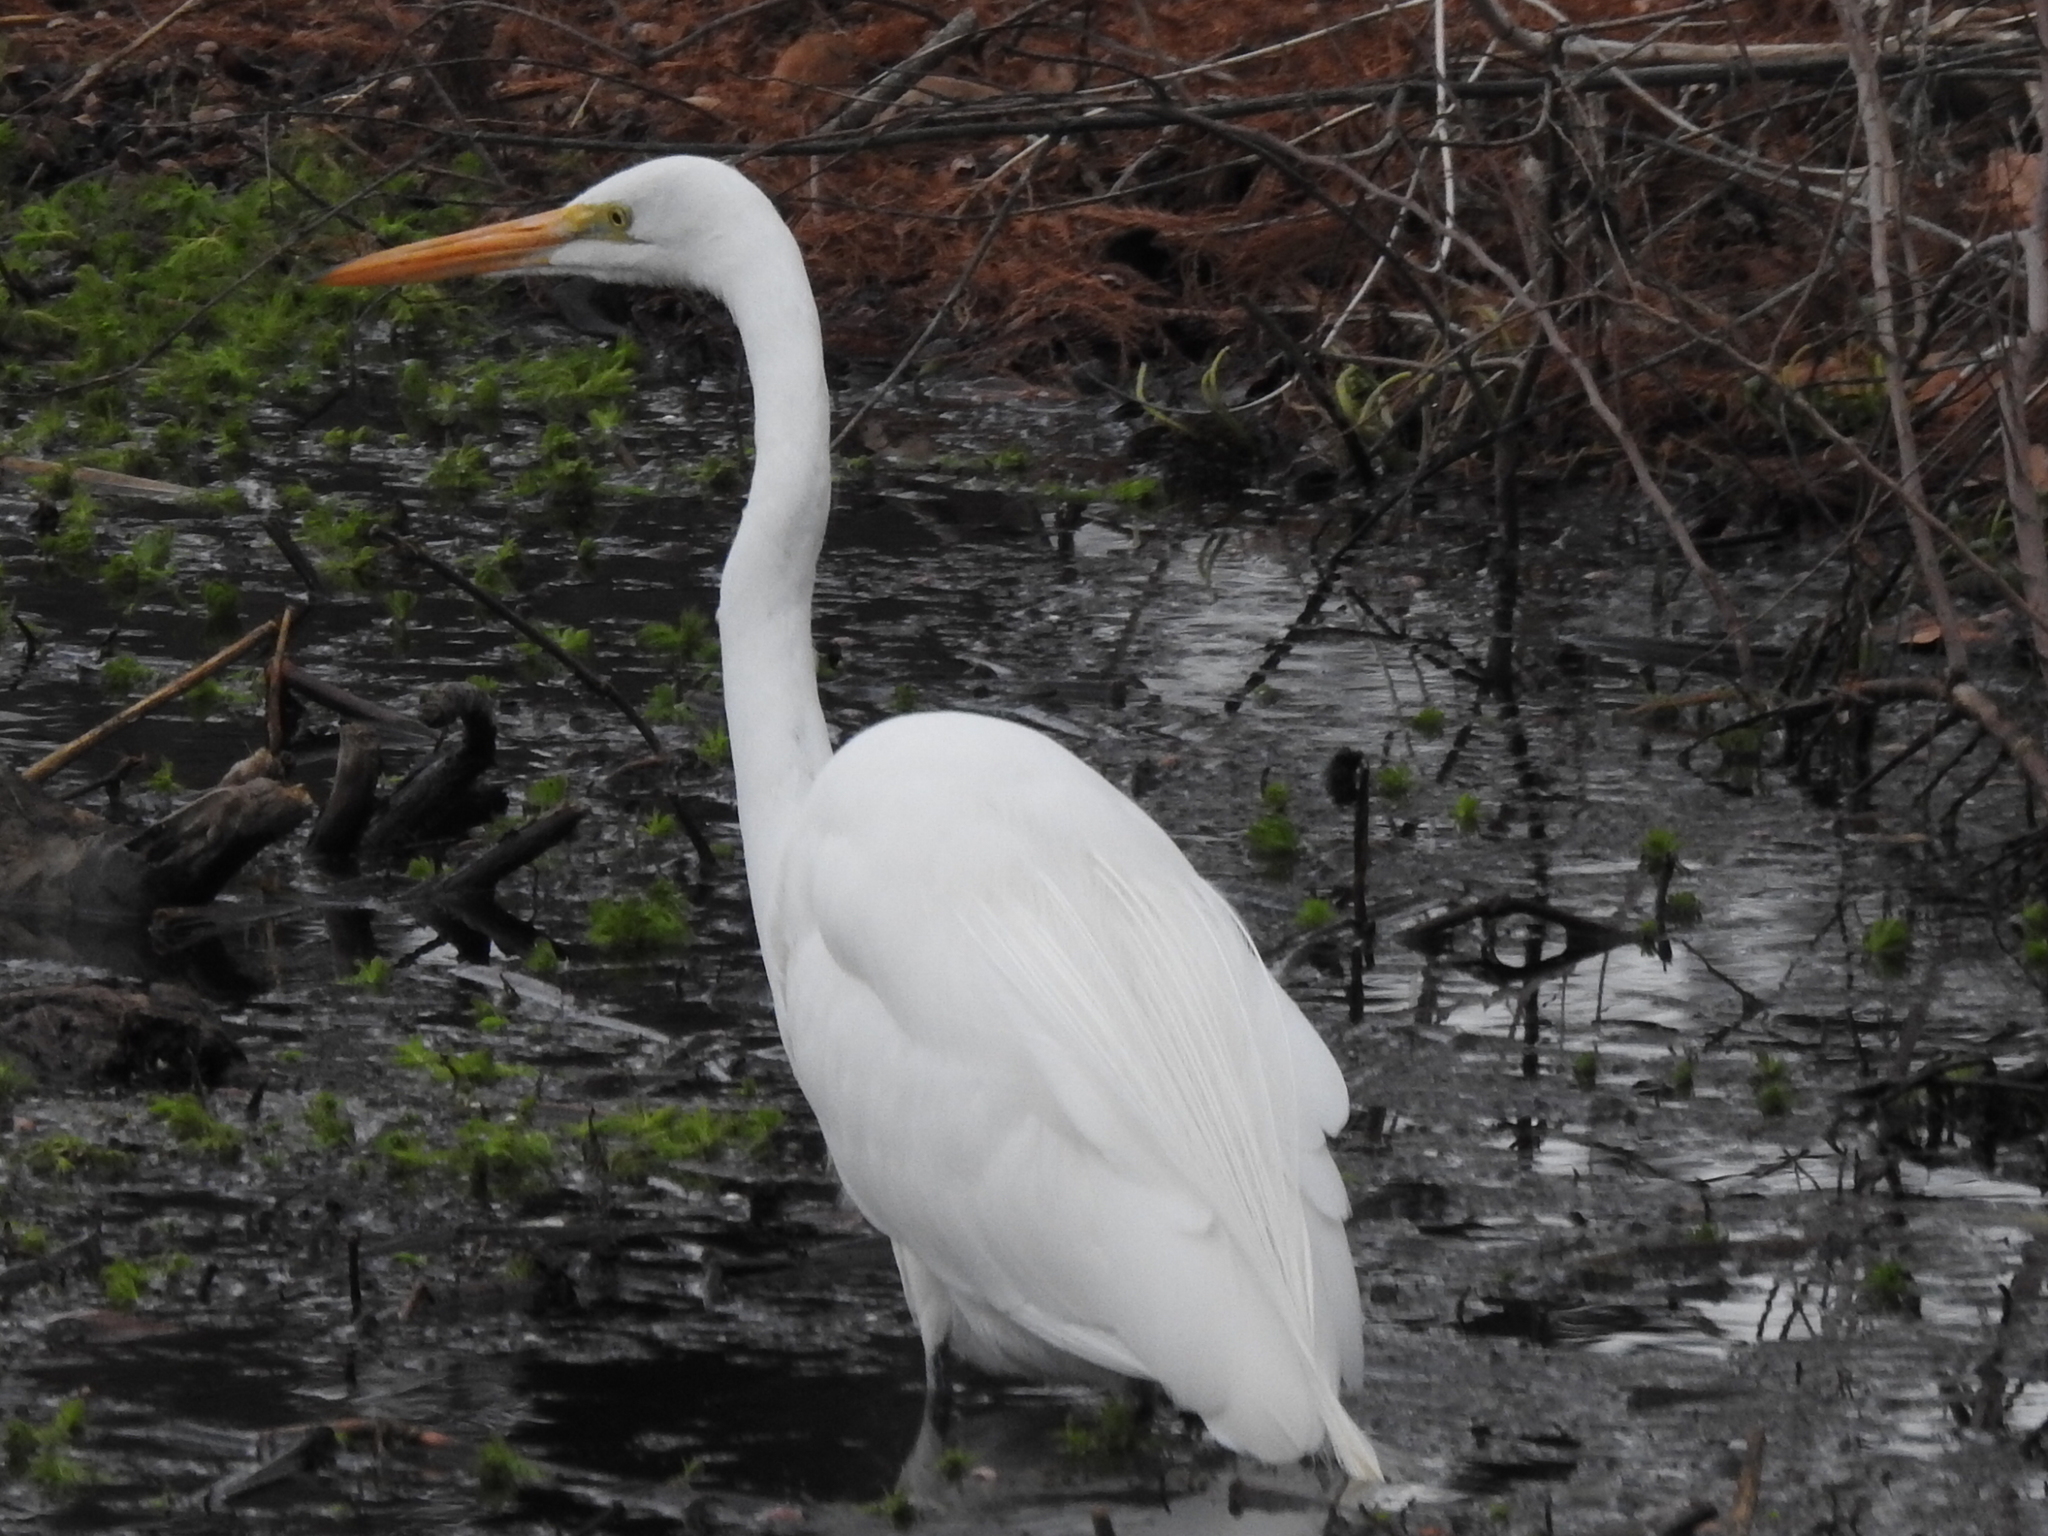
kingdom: Animalia
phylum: Chordata
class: Aves
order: Pelecaniformes
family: Ardeidae
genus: Ardea
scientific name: Ardea alba
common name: Great egret
